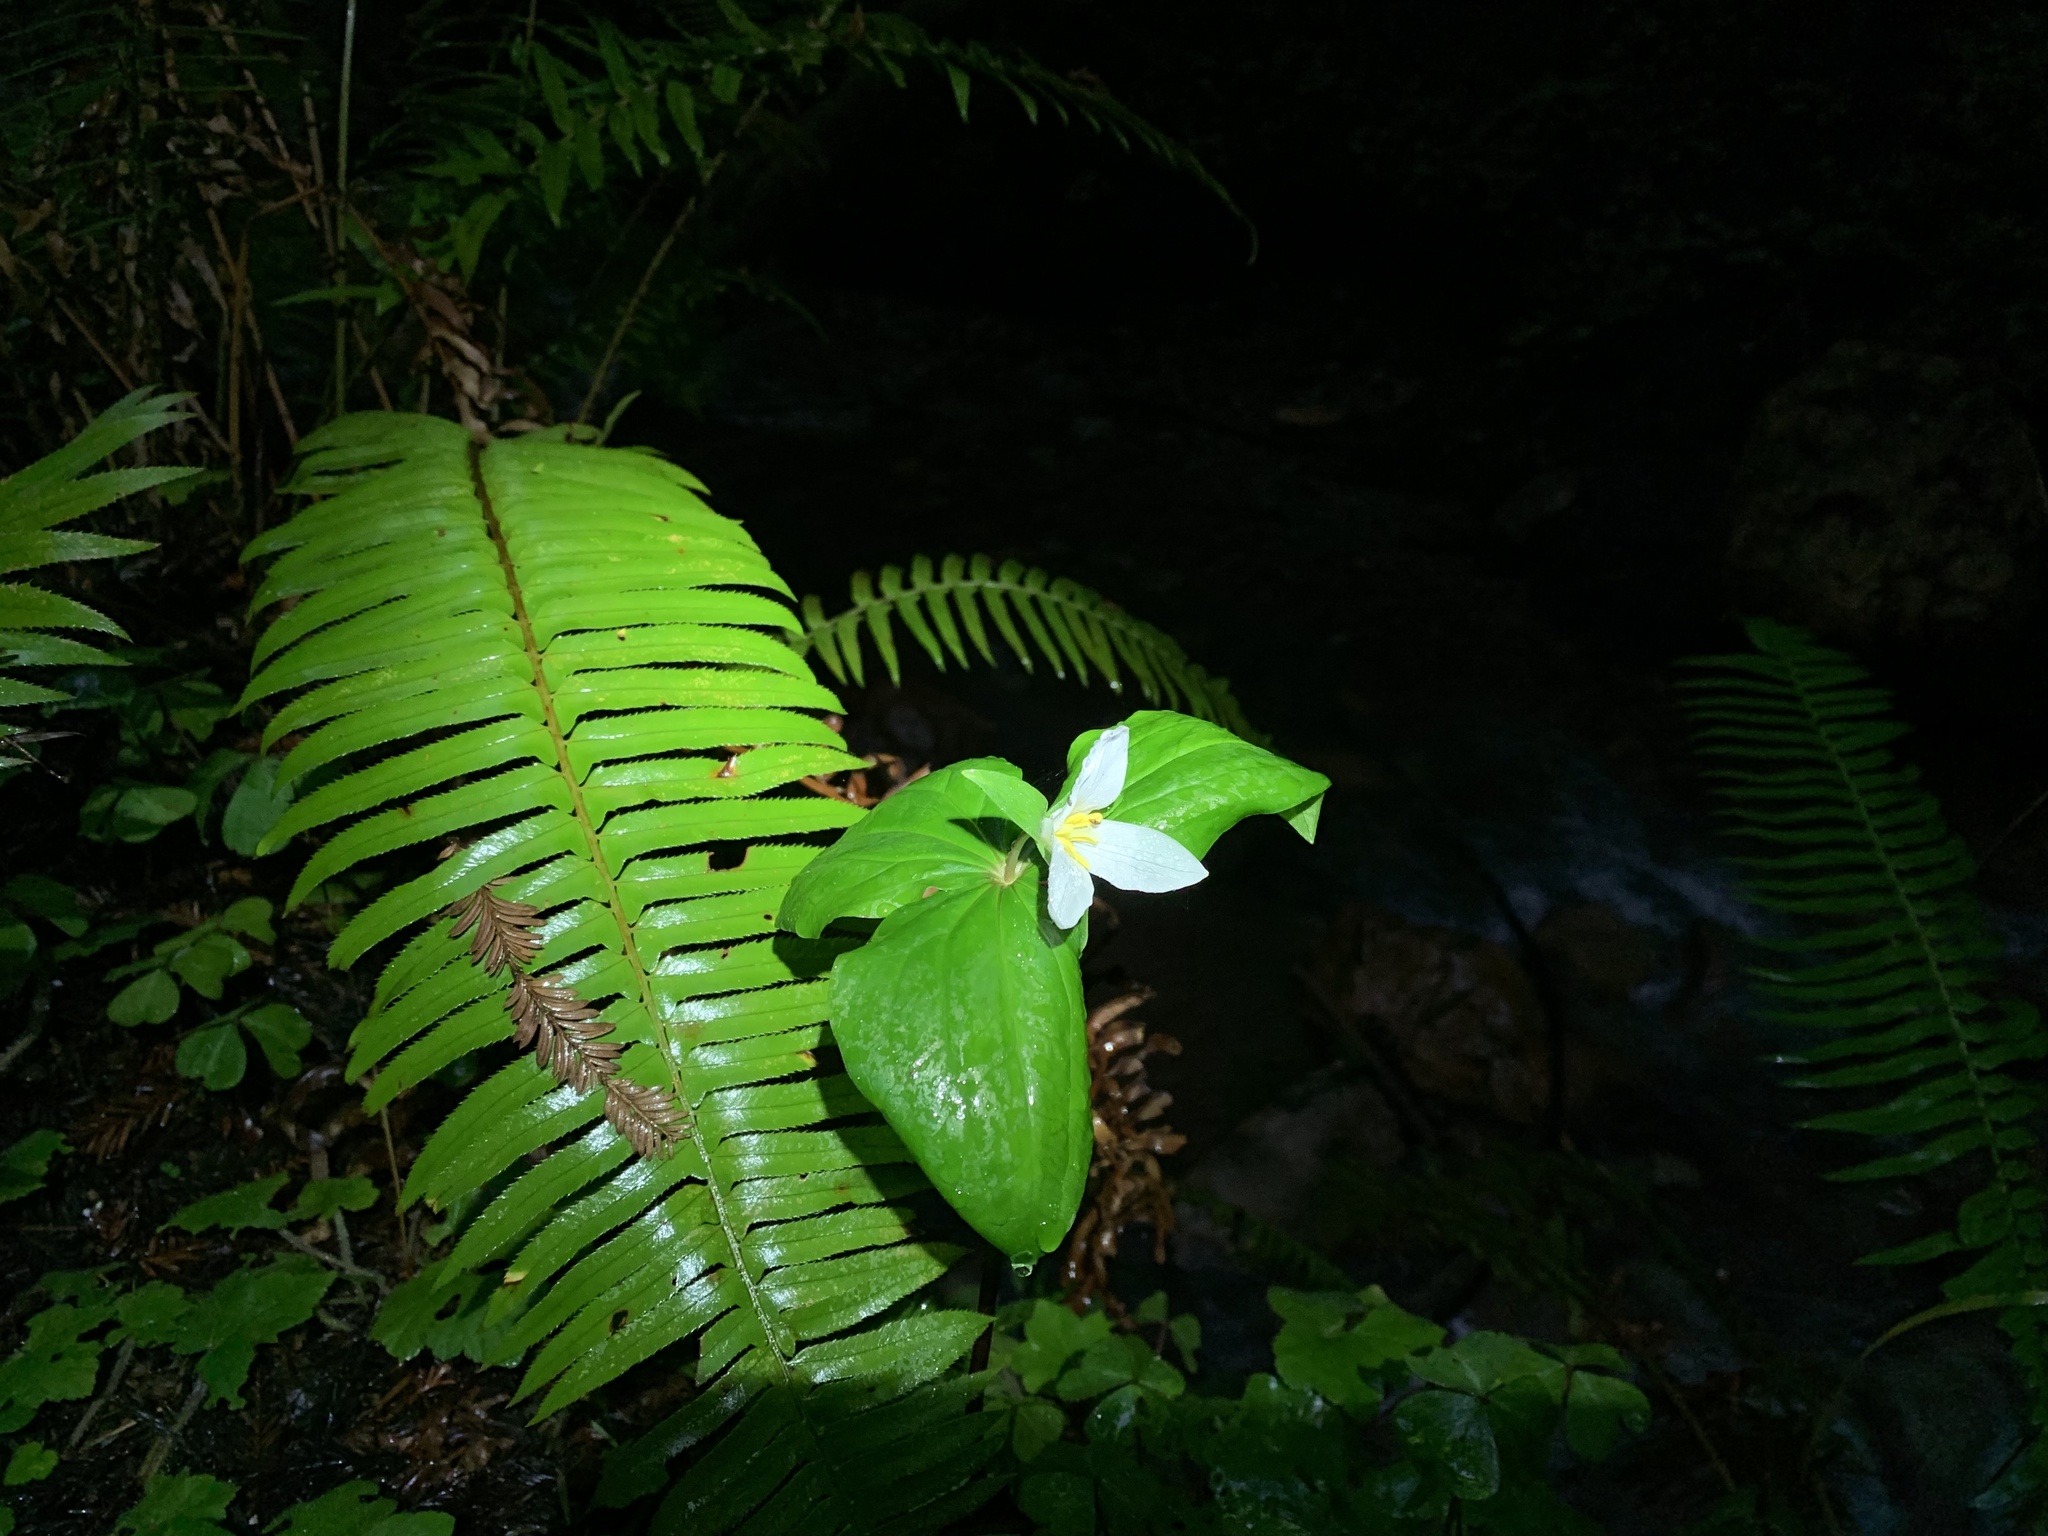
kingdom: Plantae
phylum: Tracheophyta
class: Liliopsida
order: Liliales
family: Melanthiaceae
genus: Trillium
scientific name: Trillium ovatum
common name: Pacific trillium
